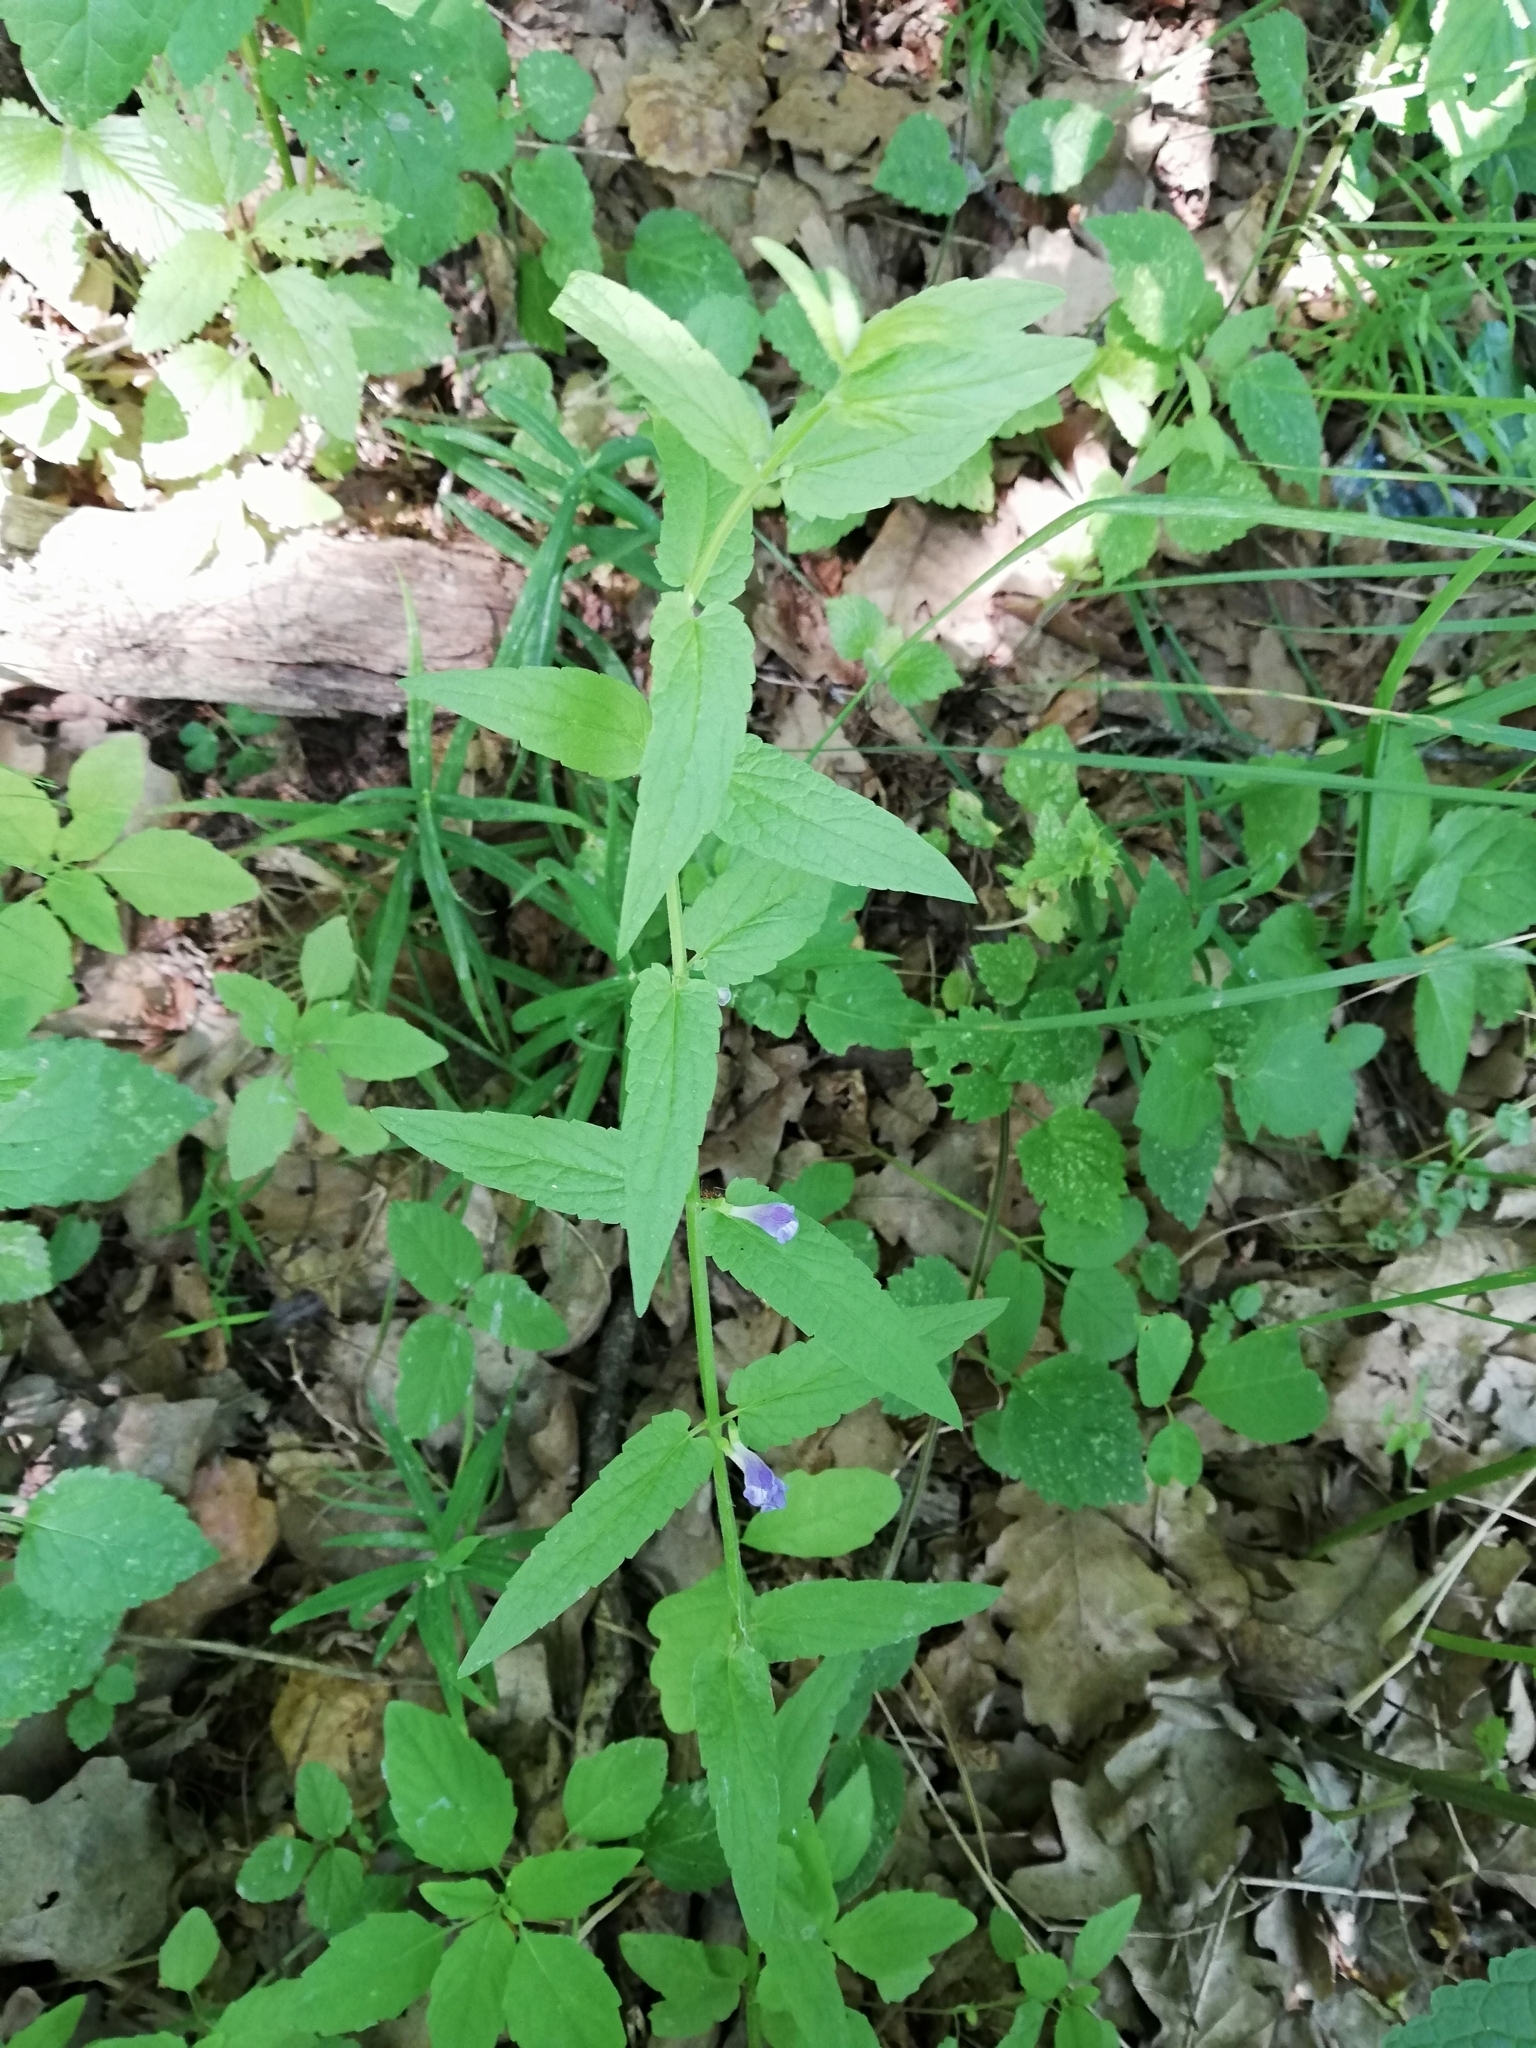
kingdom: Plantae
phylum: Tracheophyta
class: Magnoliopsida
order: Lamiales
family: Lamiaceae
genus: Scutellaria
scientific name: Scutellaria galericulata
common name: Skullcap
